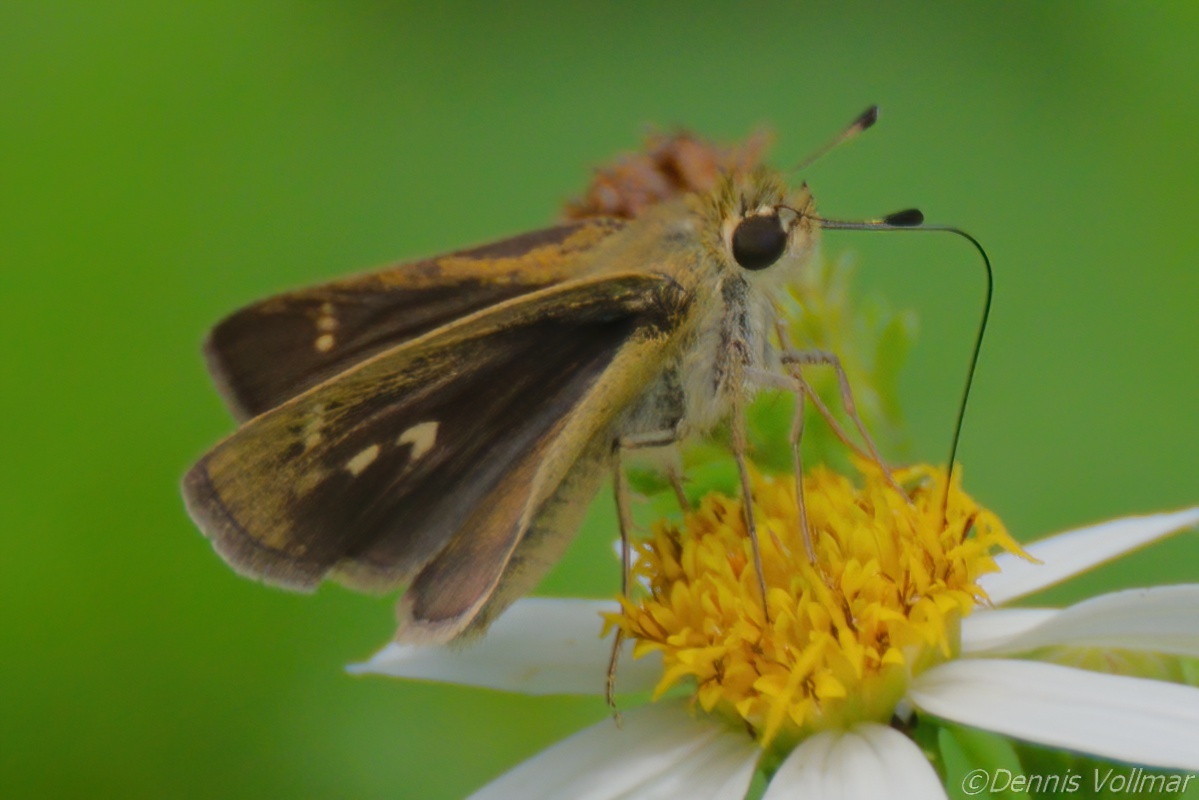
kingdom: Animalia
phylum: Arthropoda
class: Insecta
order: Lepidoptera
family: Hesperiidae
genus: Polites
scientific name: Polites vibex
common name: Whirlabout
